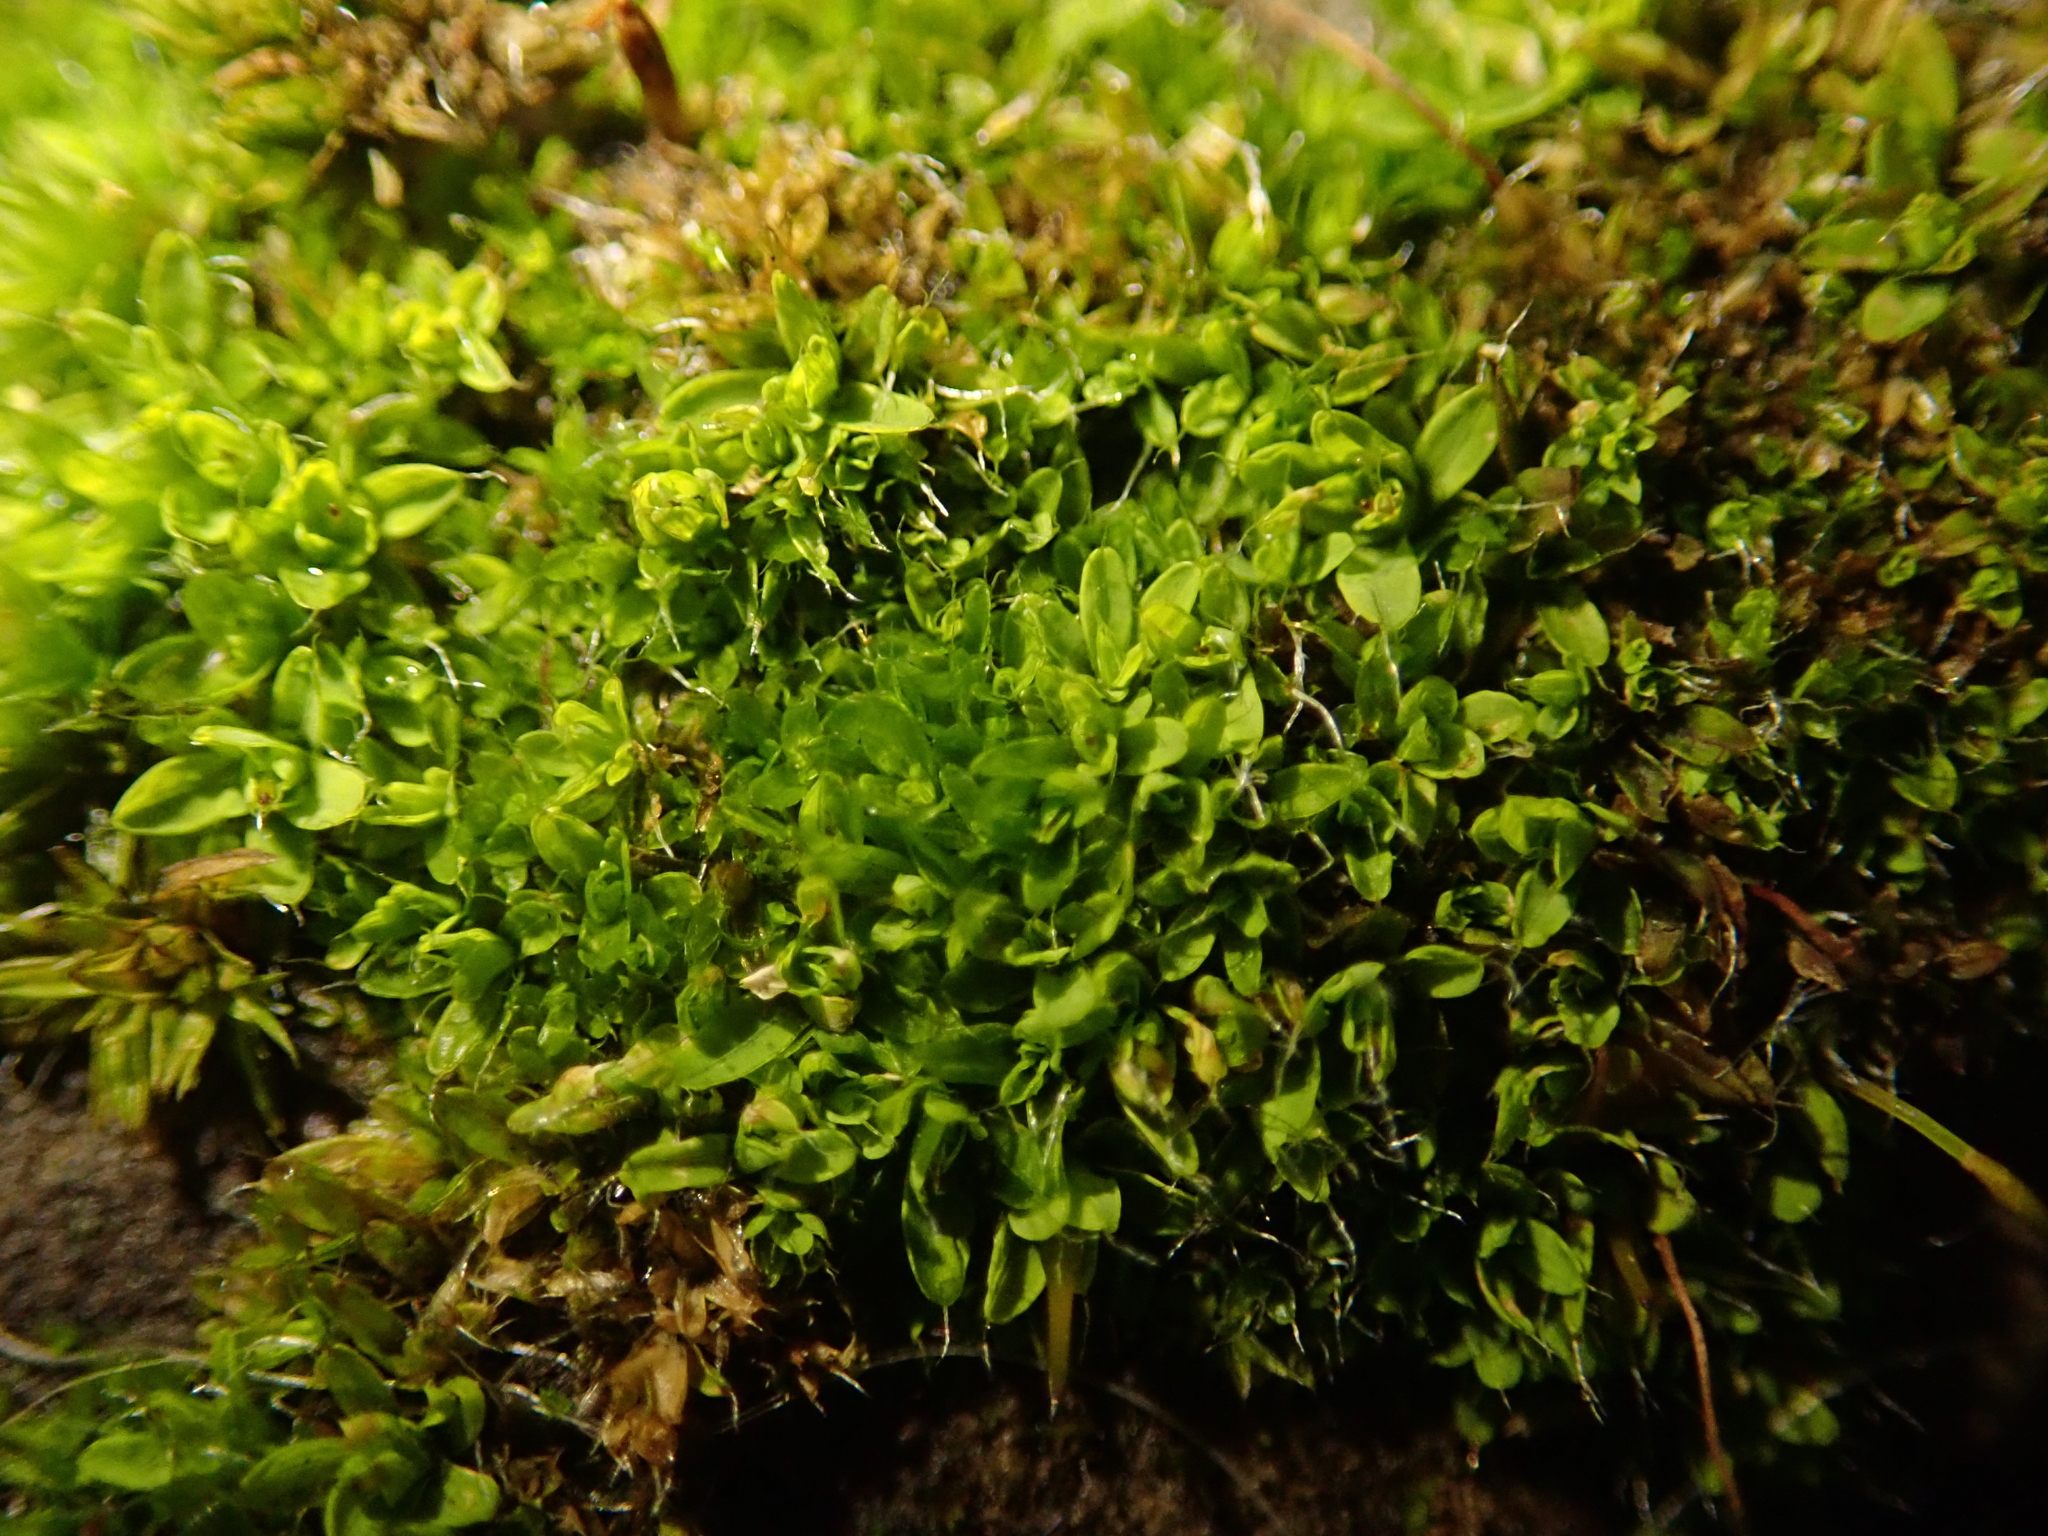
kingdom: Plantae
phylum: Bryophyta
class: Bryopsida
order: Pottiales
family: Pottiaceae
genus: Tortula
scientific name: Tortula muralis
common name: Wall screw-moss
